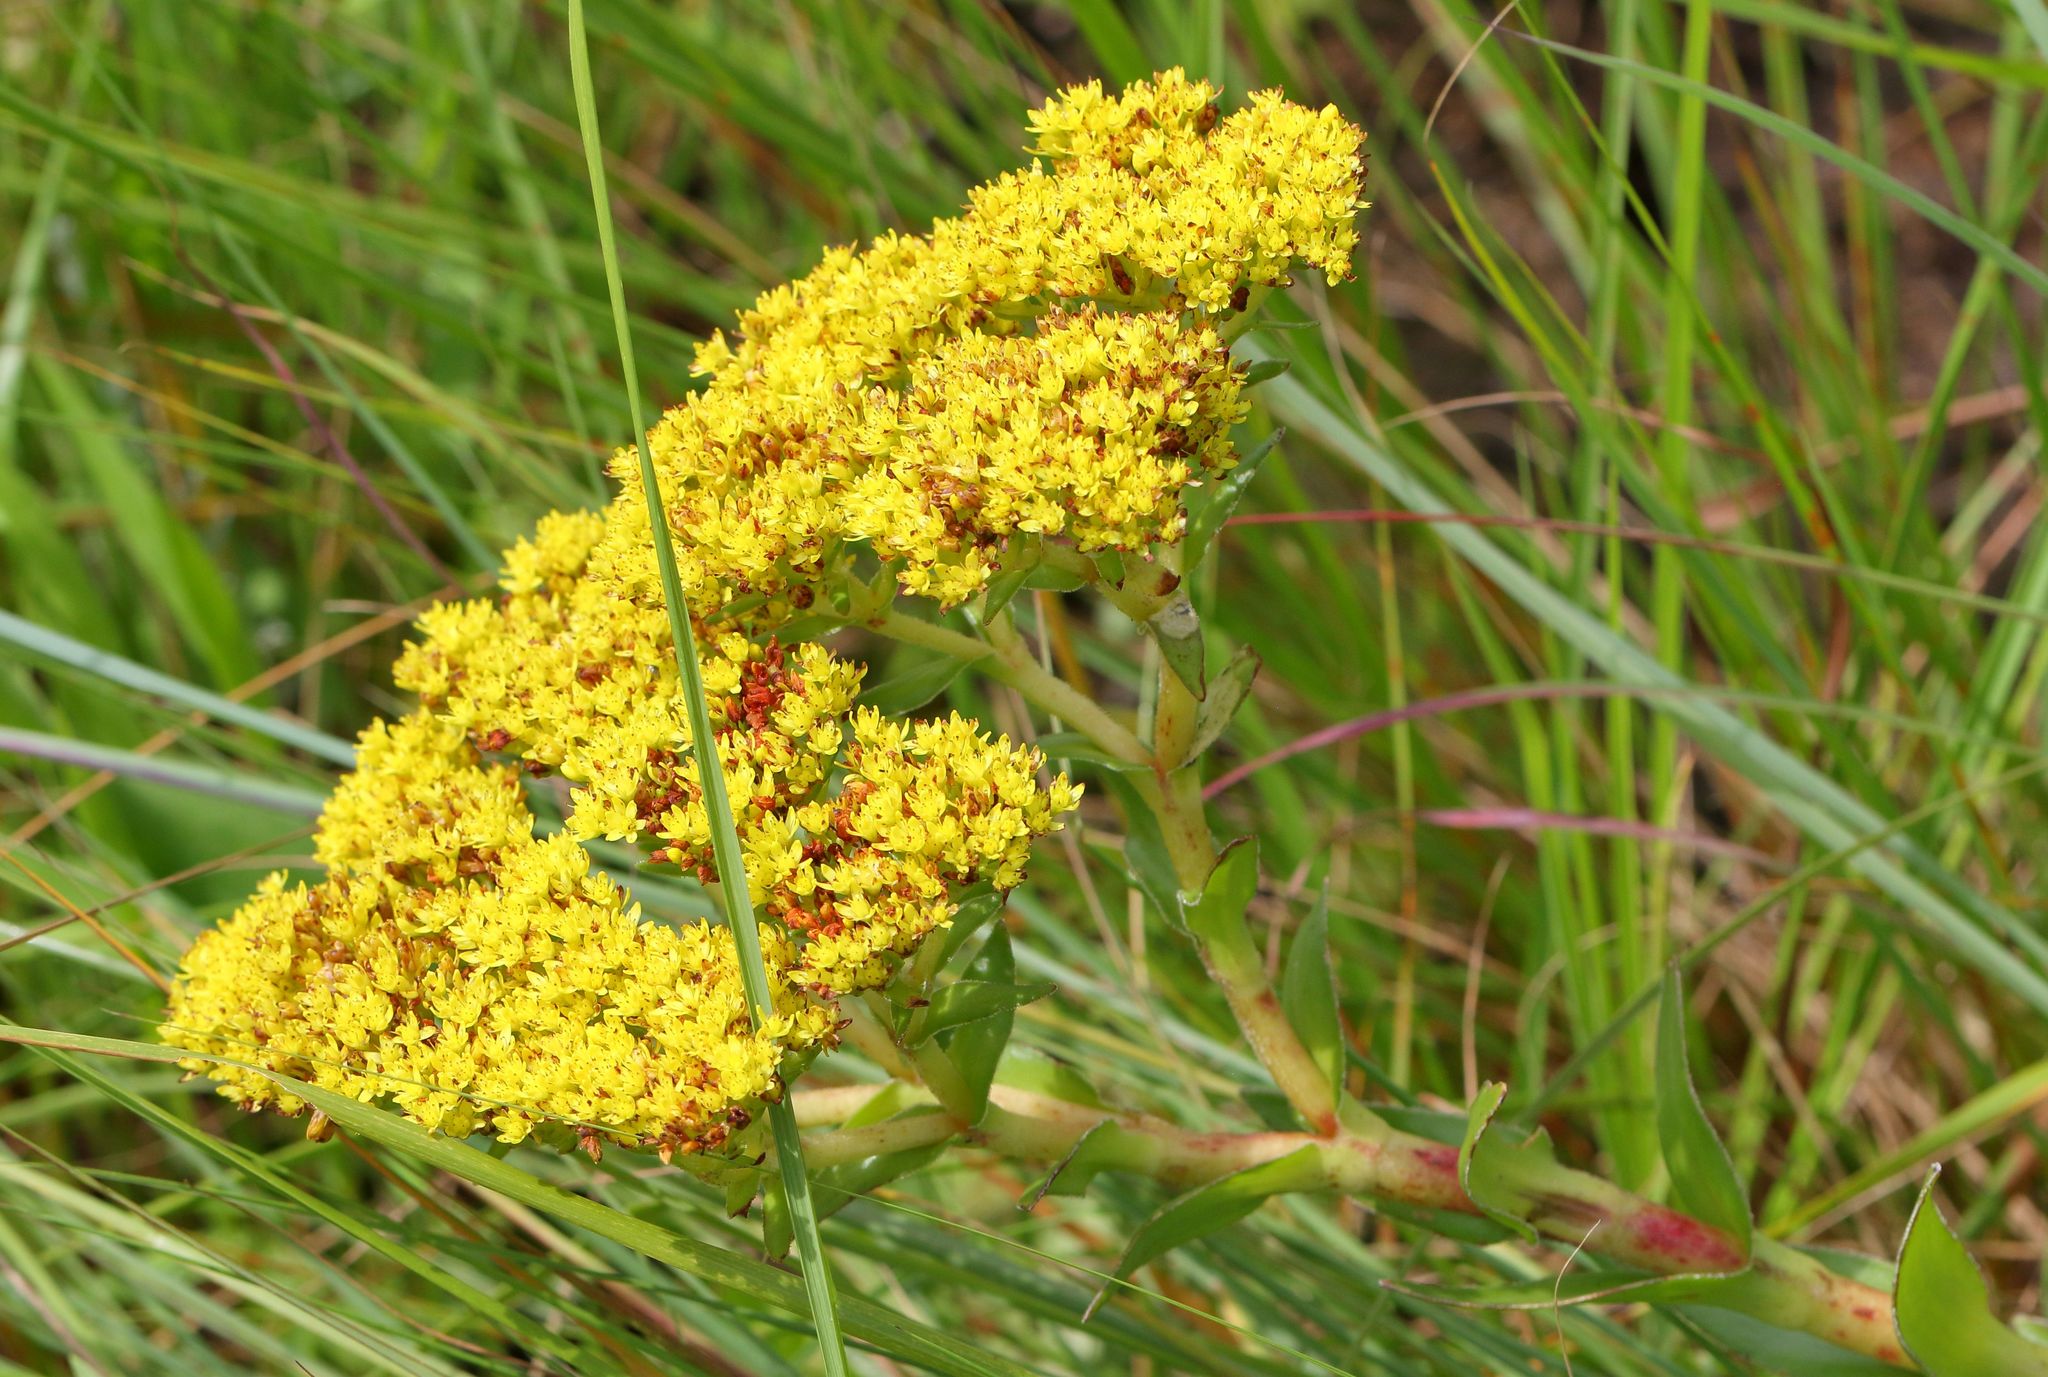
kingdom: Plantae
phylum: Tracheophyta
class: Magnoliopsida
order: Saxifragales
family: Crassulaceae
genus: Crassula
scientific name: Crassula vaginata
